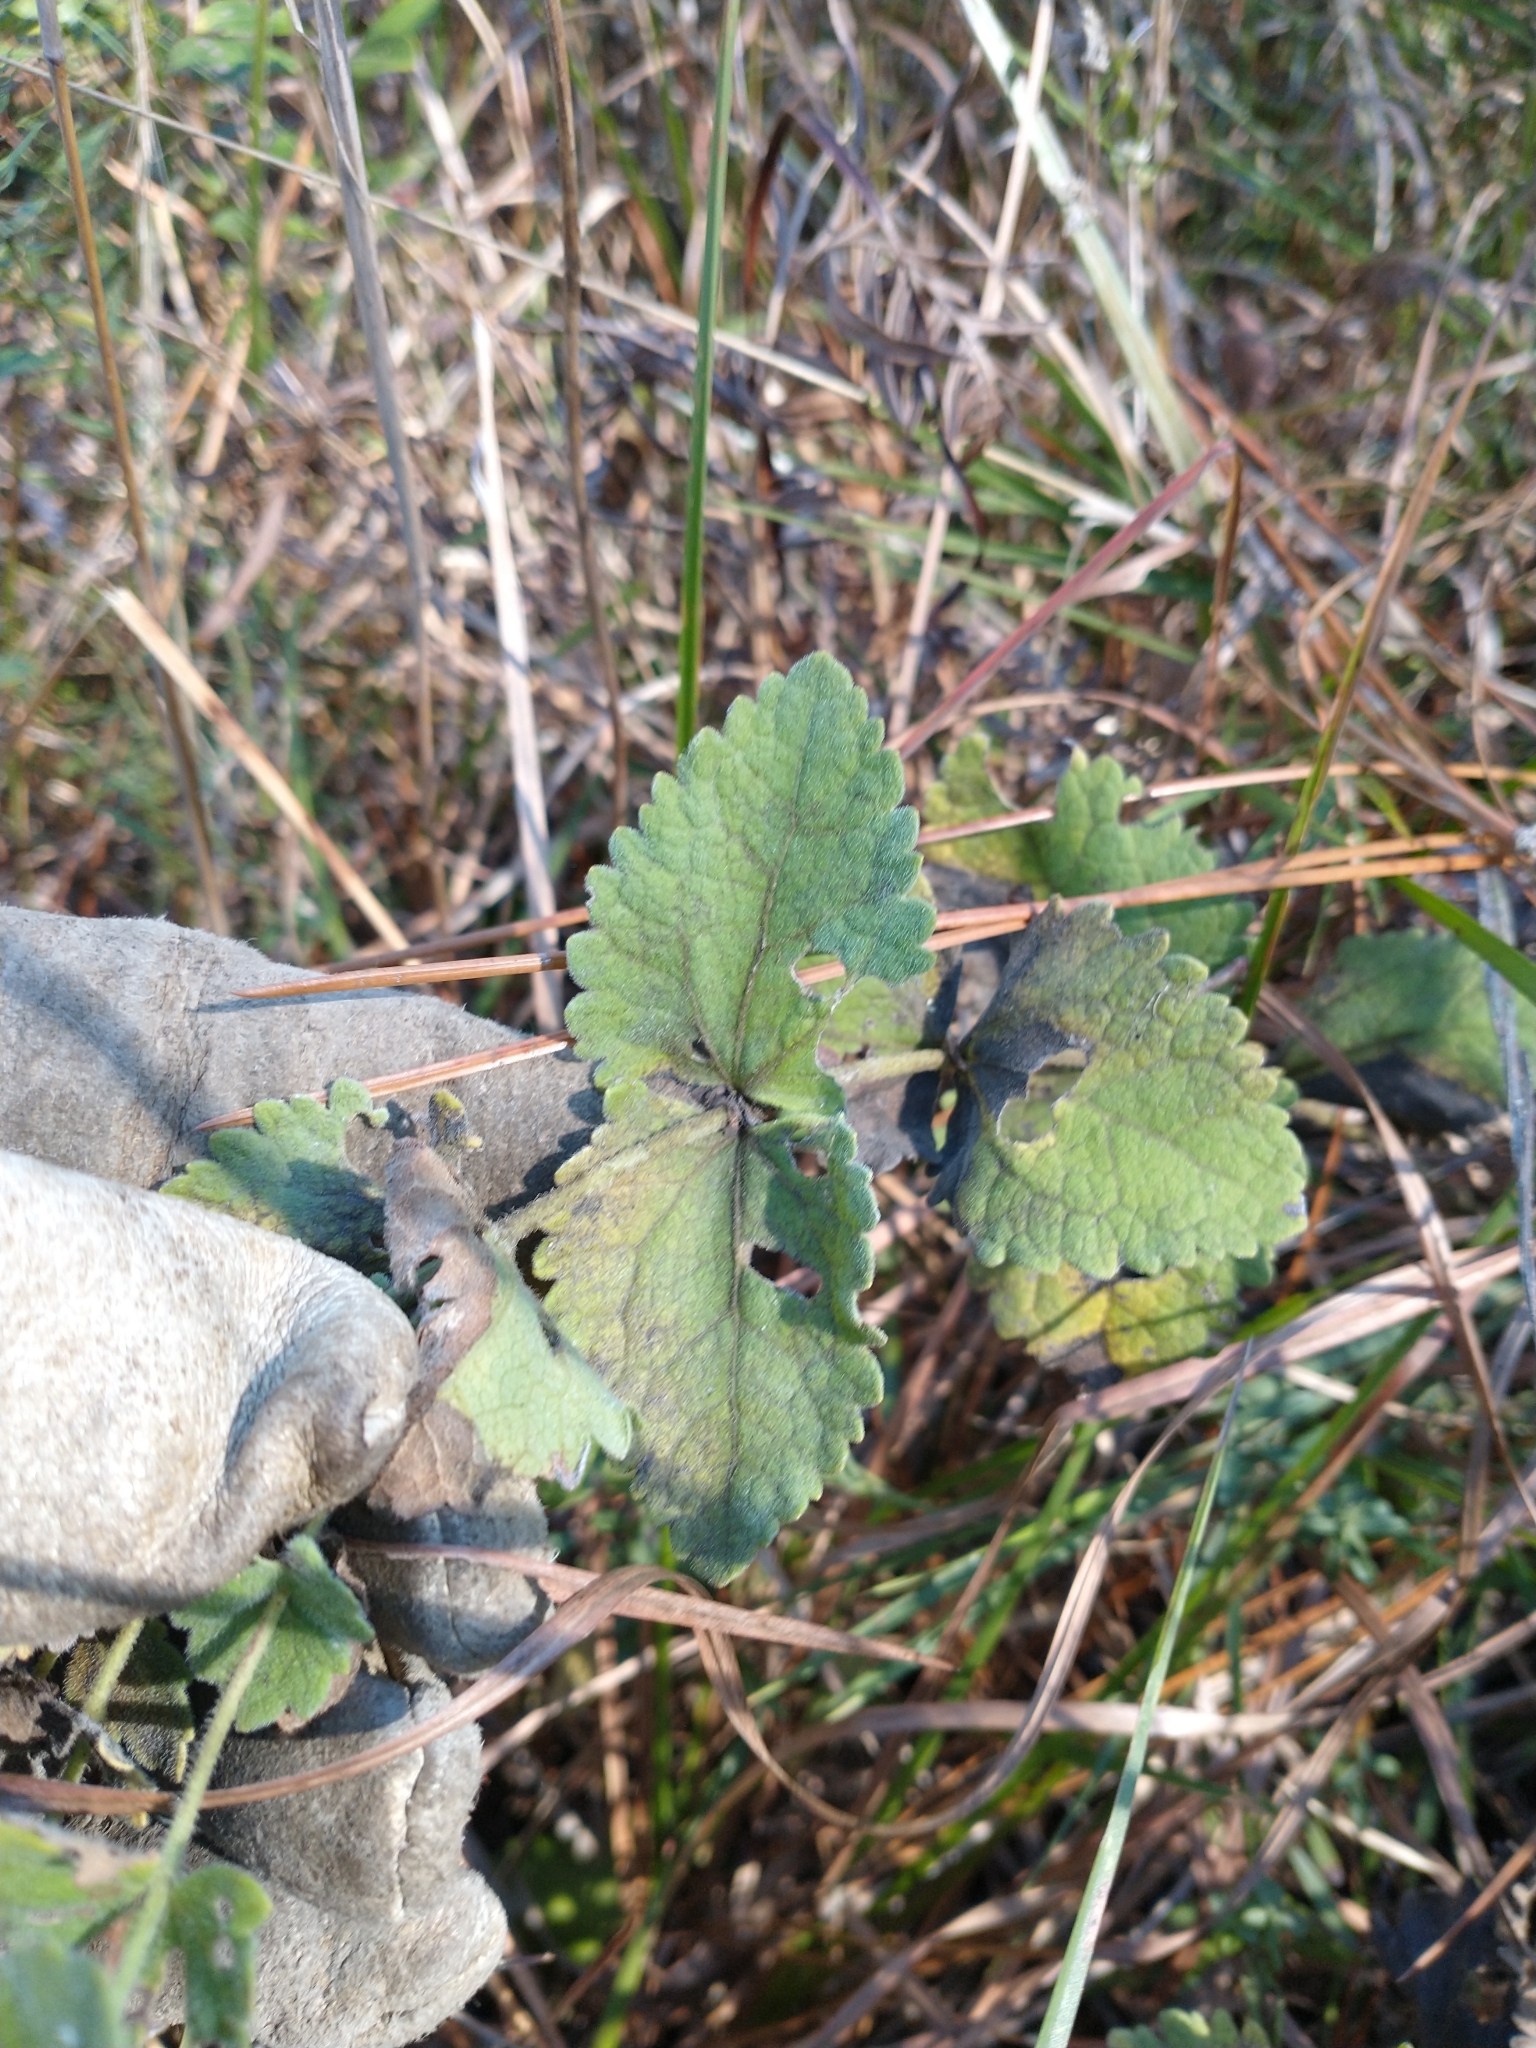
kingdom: Plantae
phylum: Tracheophyta
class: Magnoliopsida
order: Asterales
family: Asteraceae
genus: Eupatorium
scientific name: Eupatorium rotundifolium
